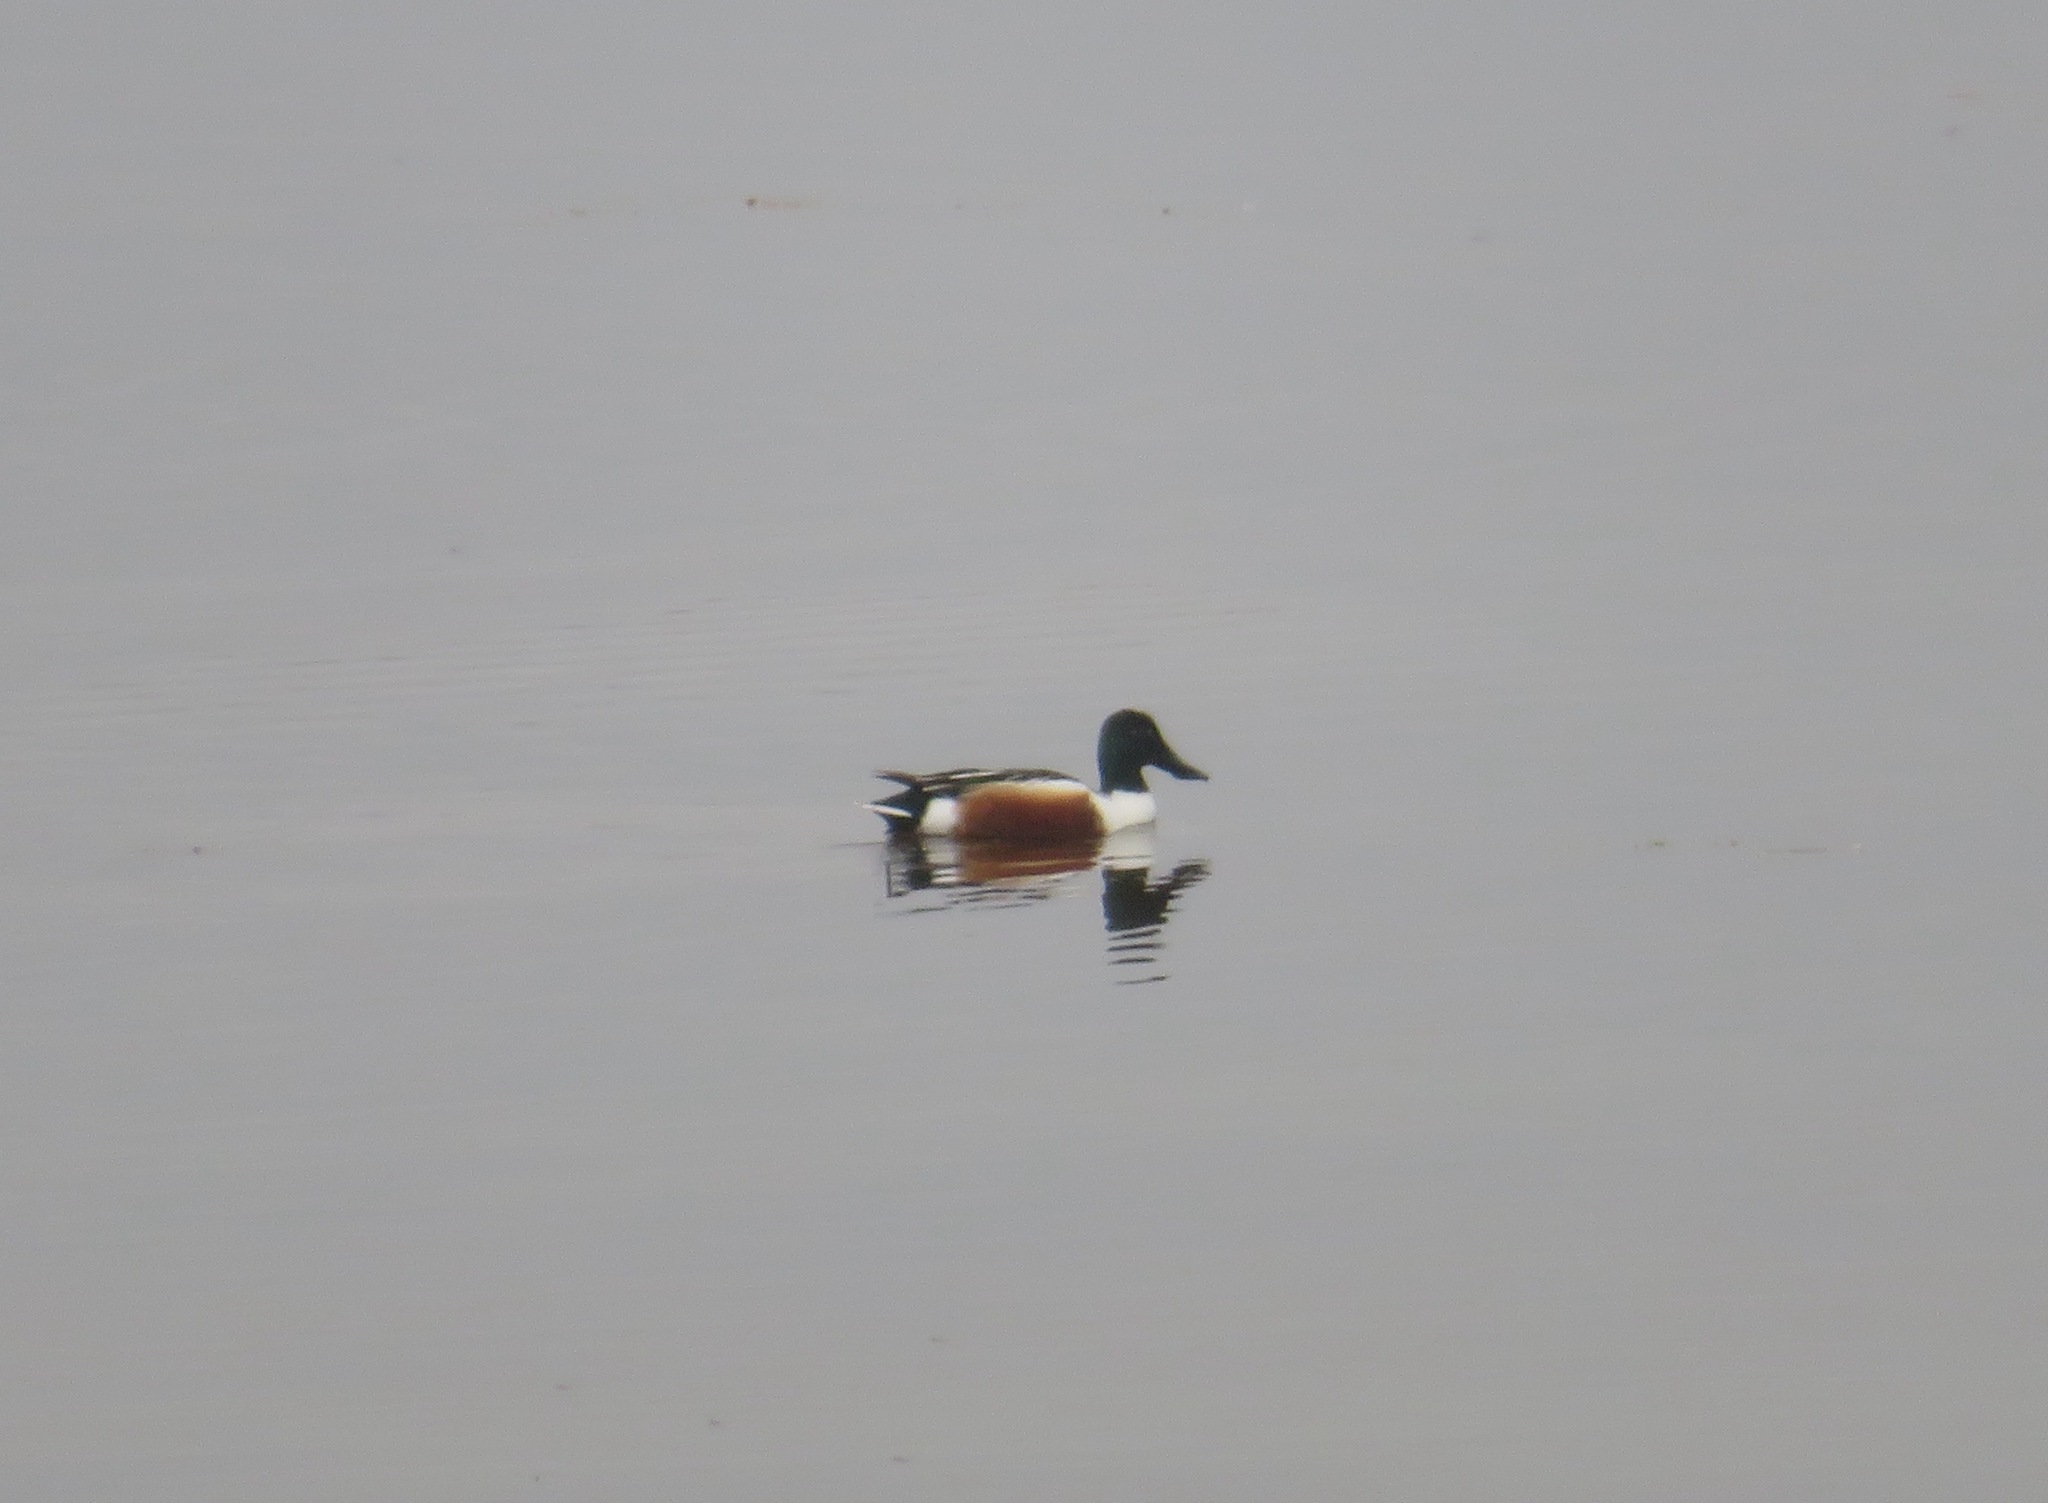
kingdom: Animalia
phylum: Chordata
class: Aves
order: Anseriformes
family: Anatidae
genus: Spatula
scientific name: Spatula clypeata
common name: Northern shoveler
